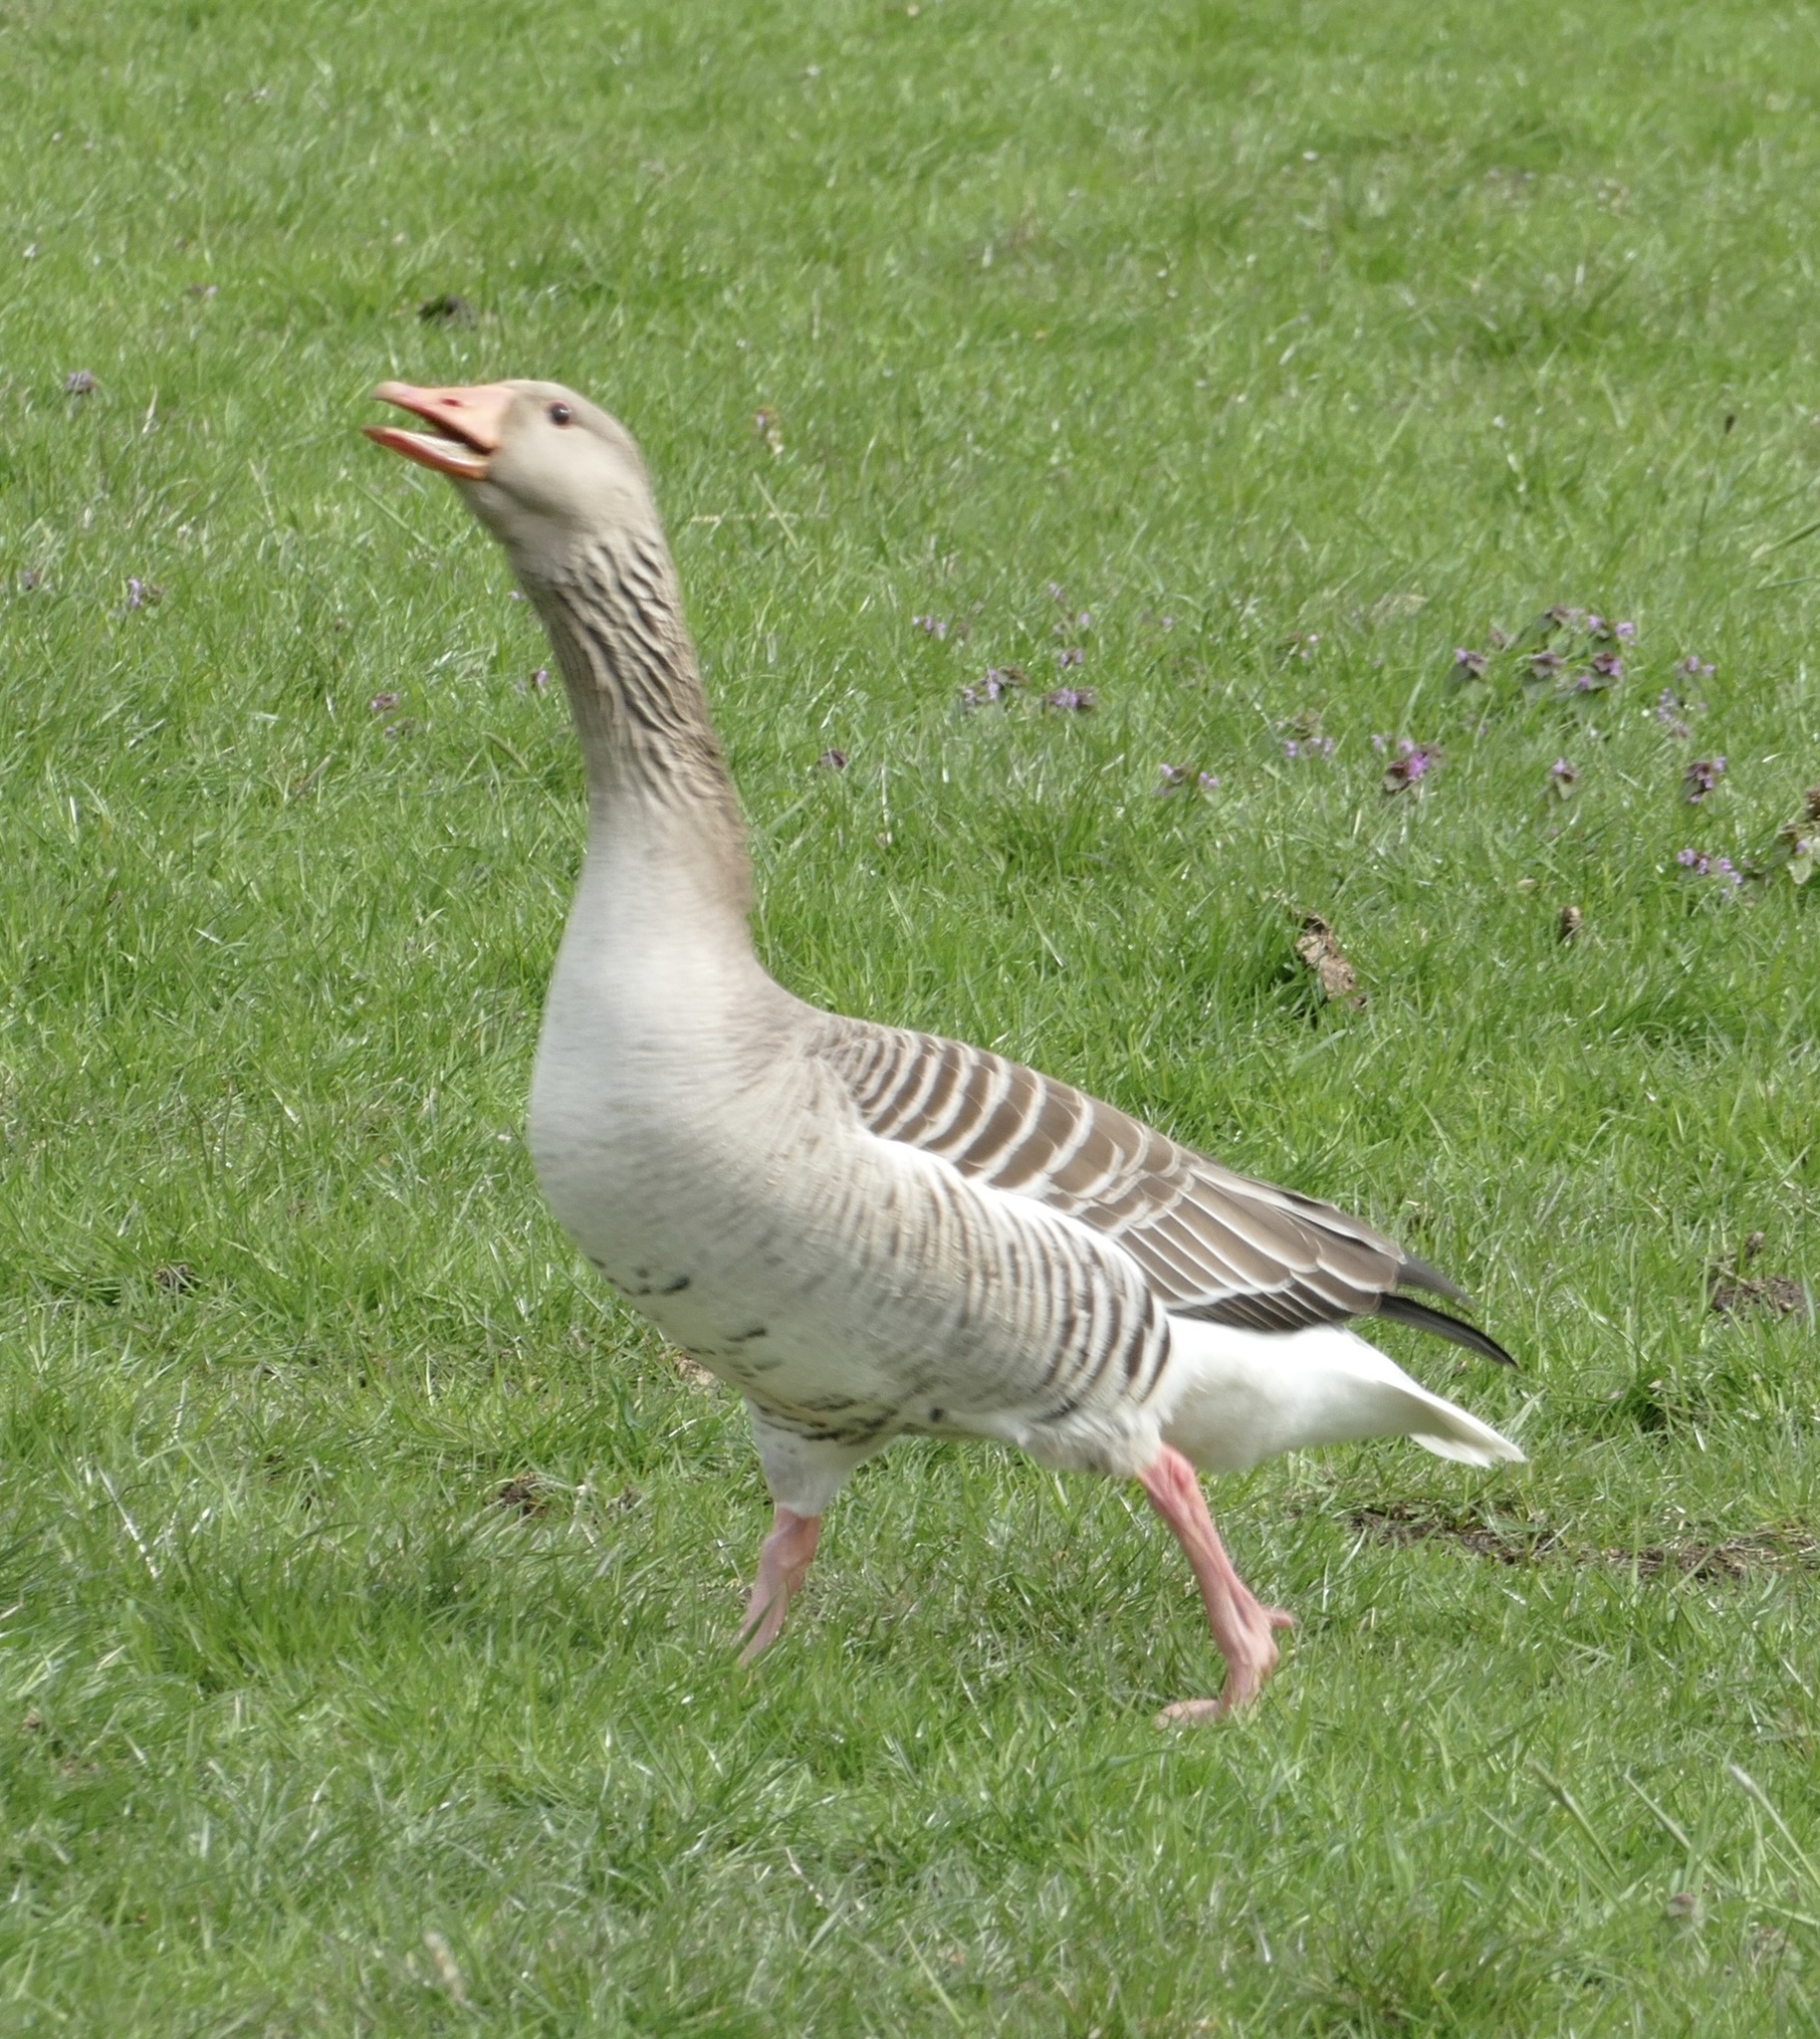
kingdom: Animalia
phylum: Chordata
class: Aves
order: Anseriformes
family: Anatidae
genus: Anser
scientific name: Anser anser
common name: Greylag goose
